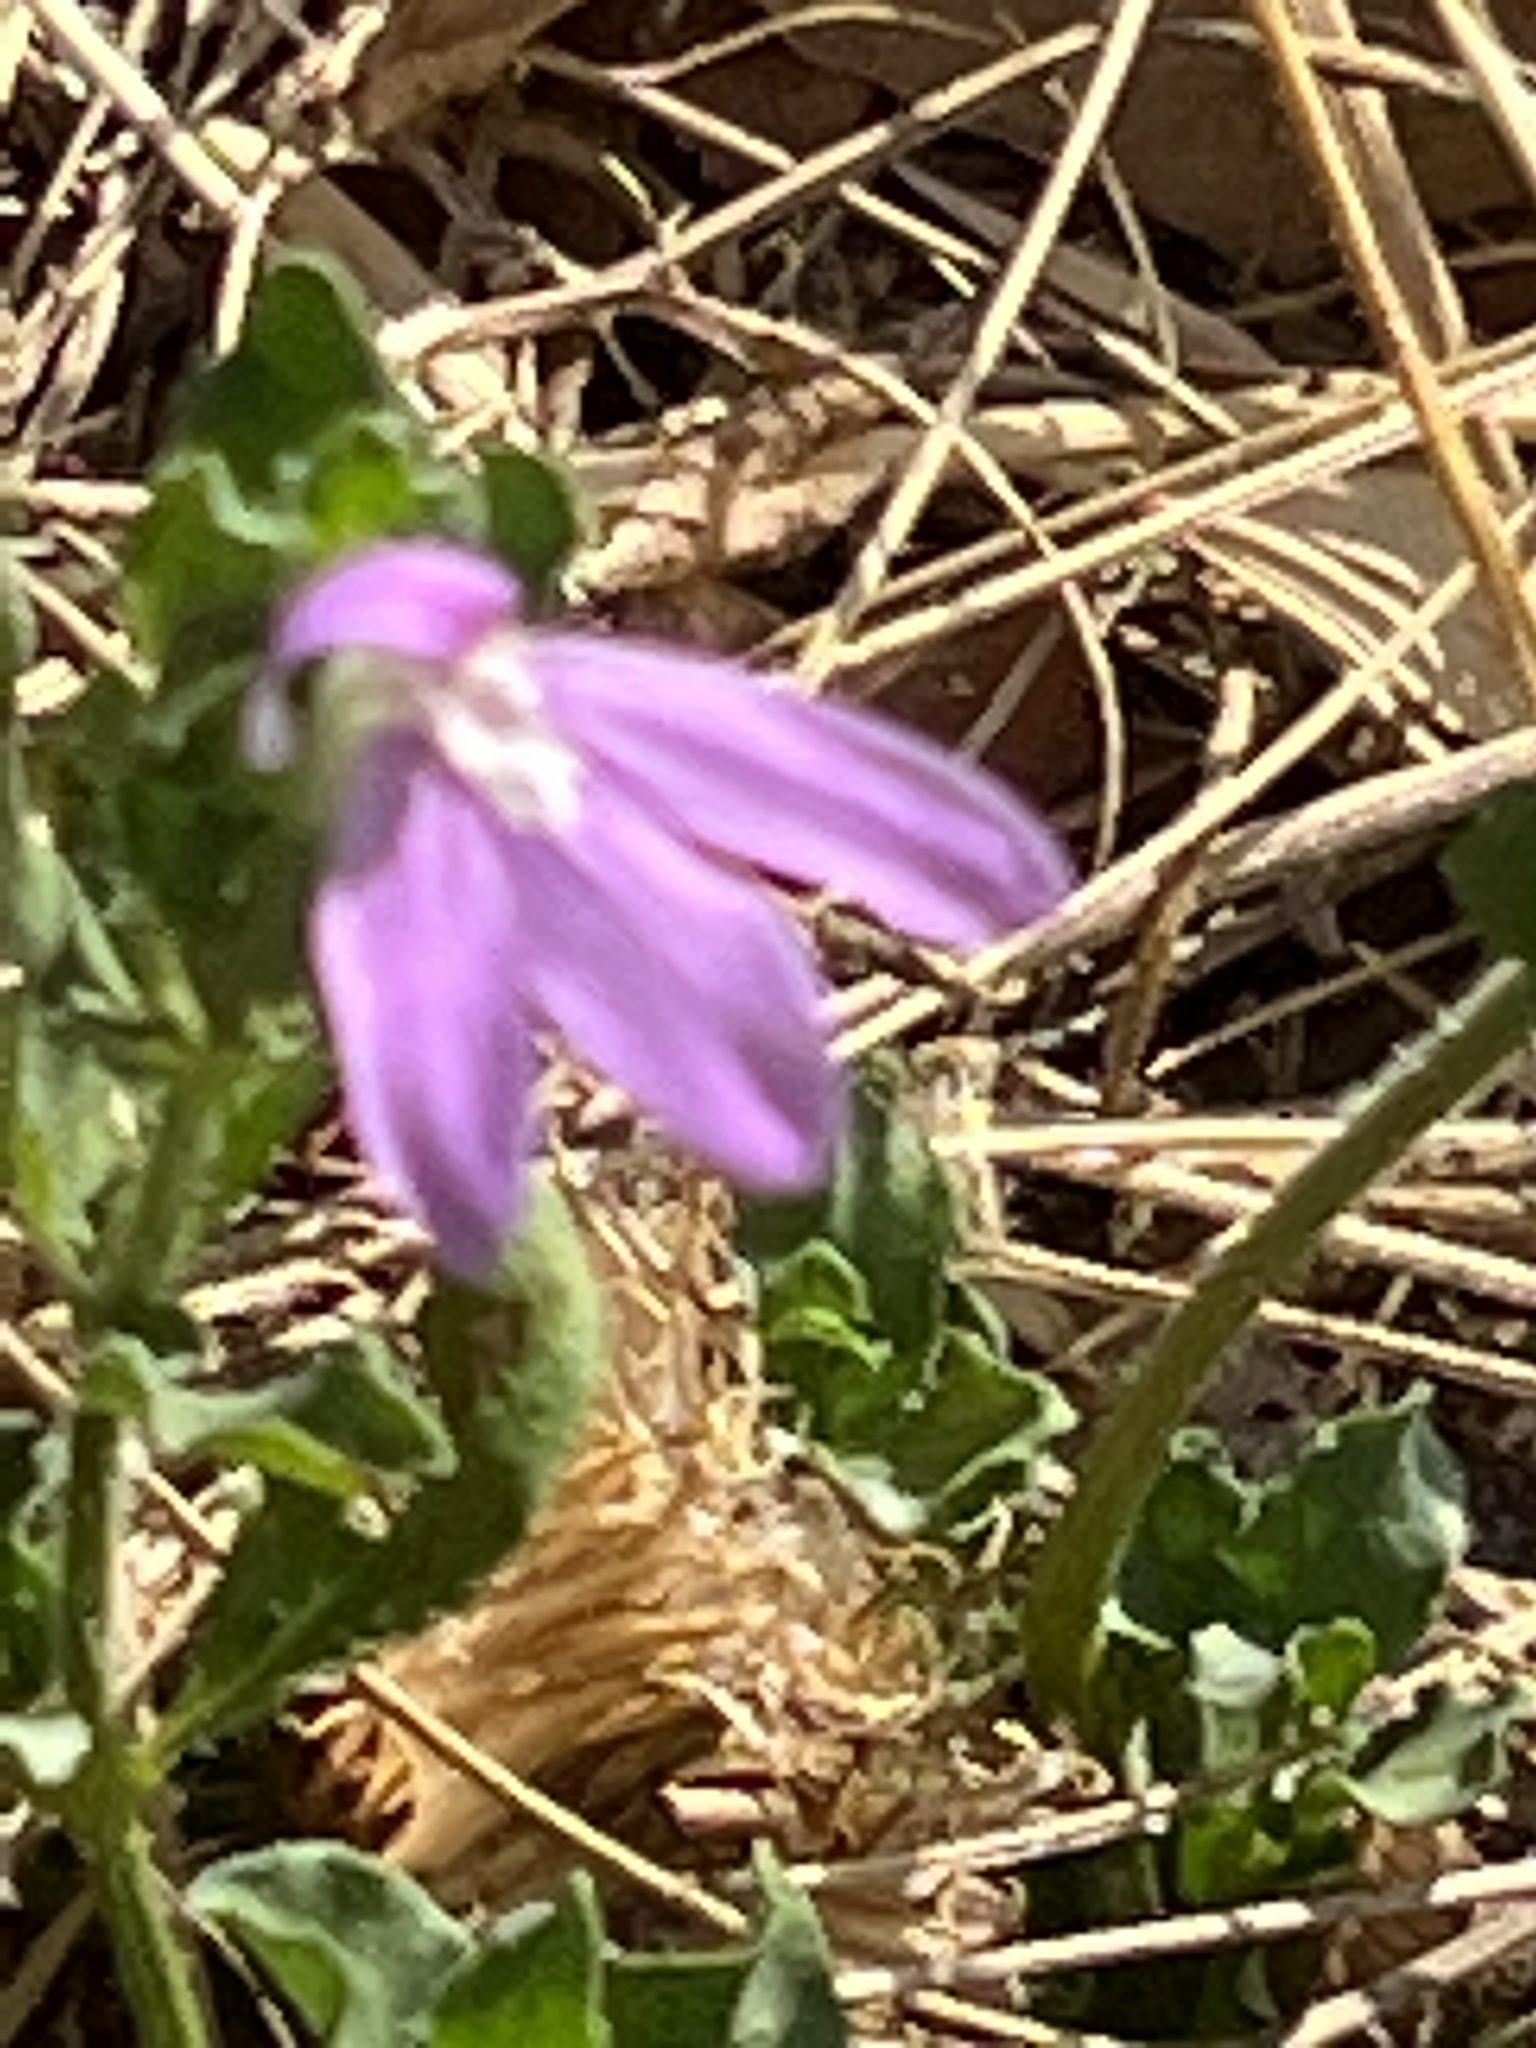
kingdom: Plantae
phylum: Tracheophyta
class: Magnoliopsida
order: Lamiales
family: Acanthaceae
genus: Justicia
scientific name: Justicia pilosella
